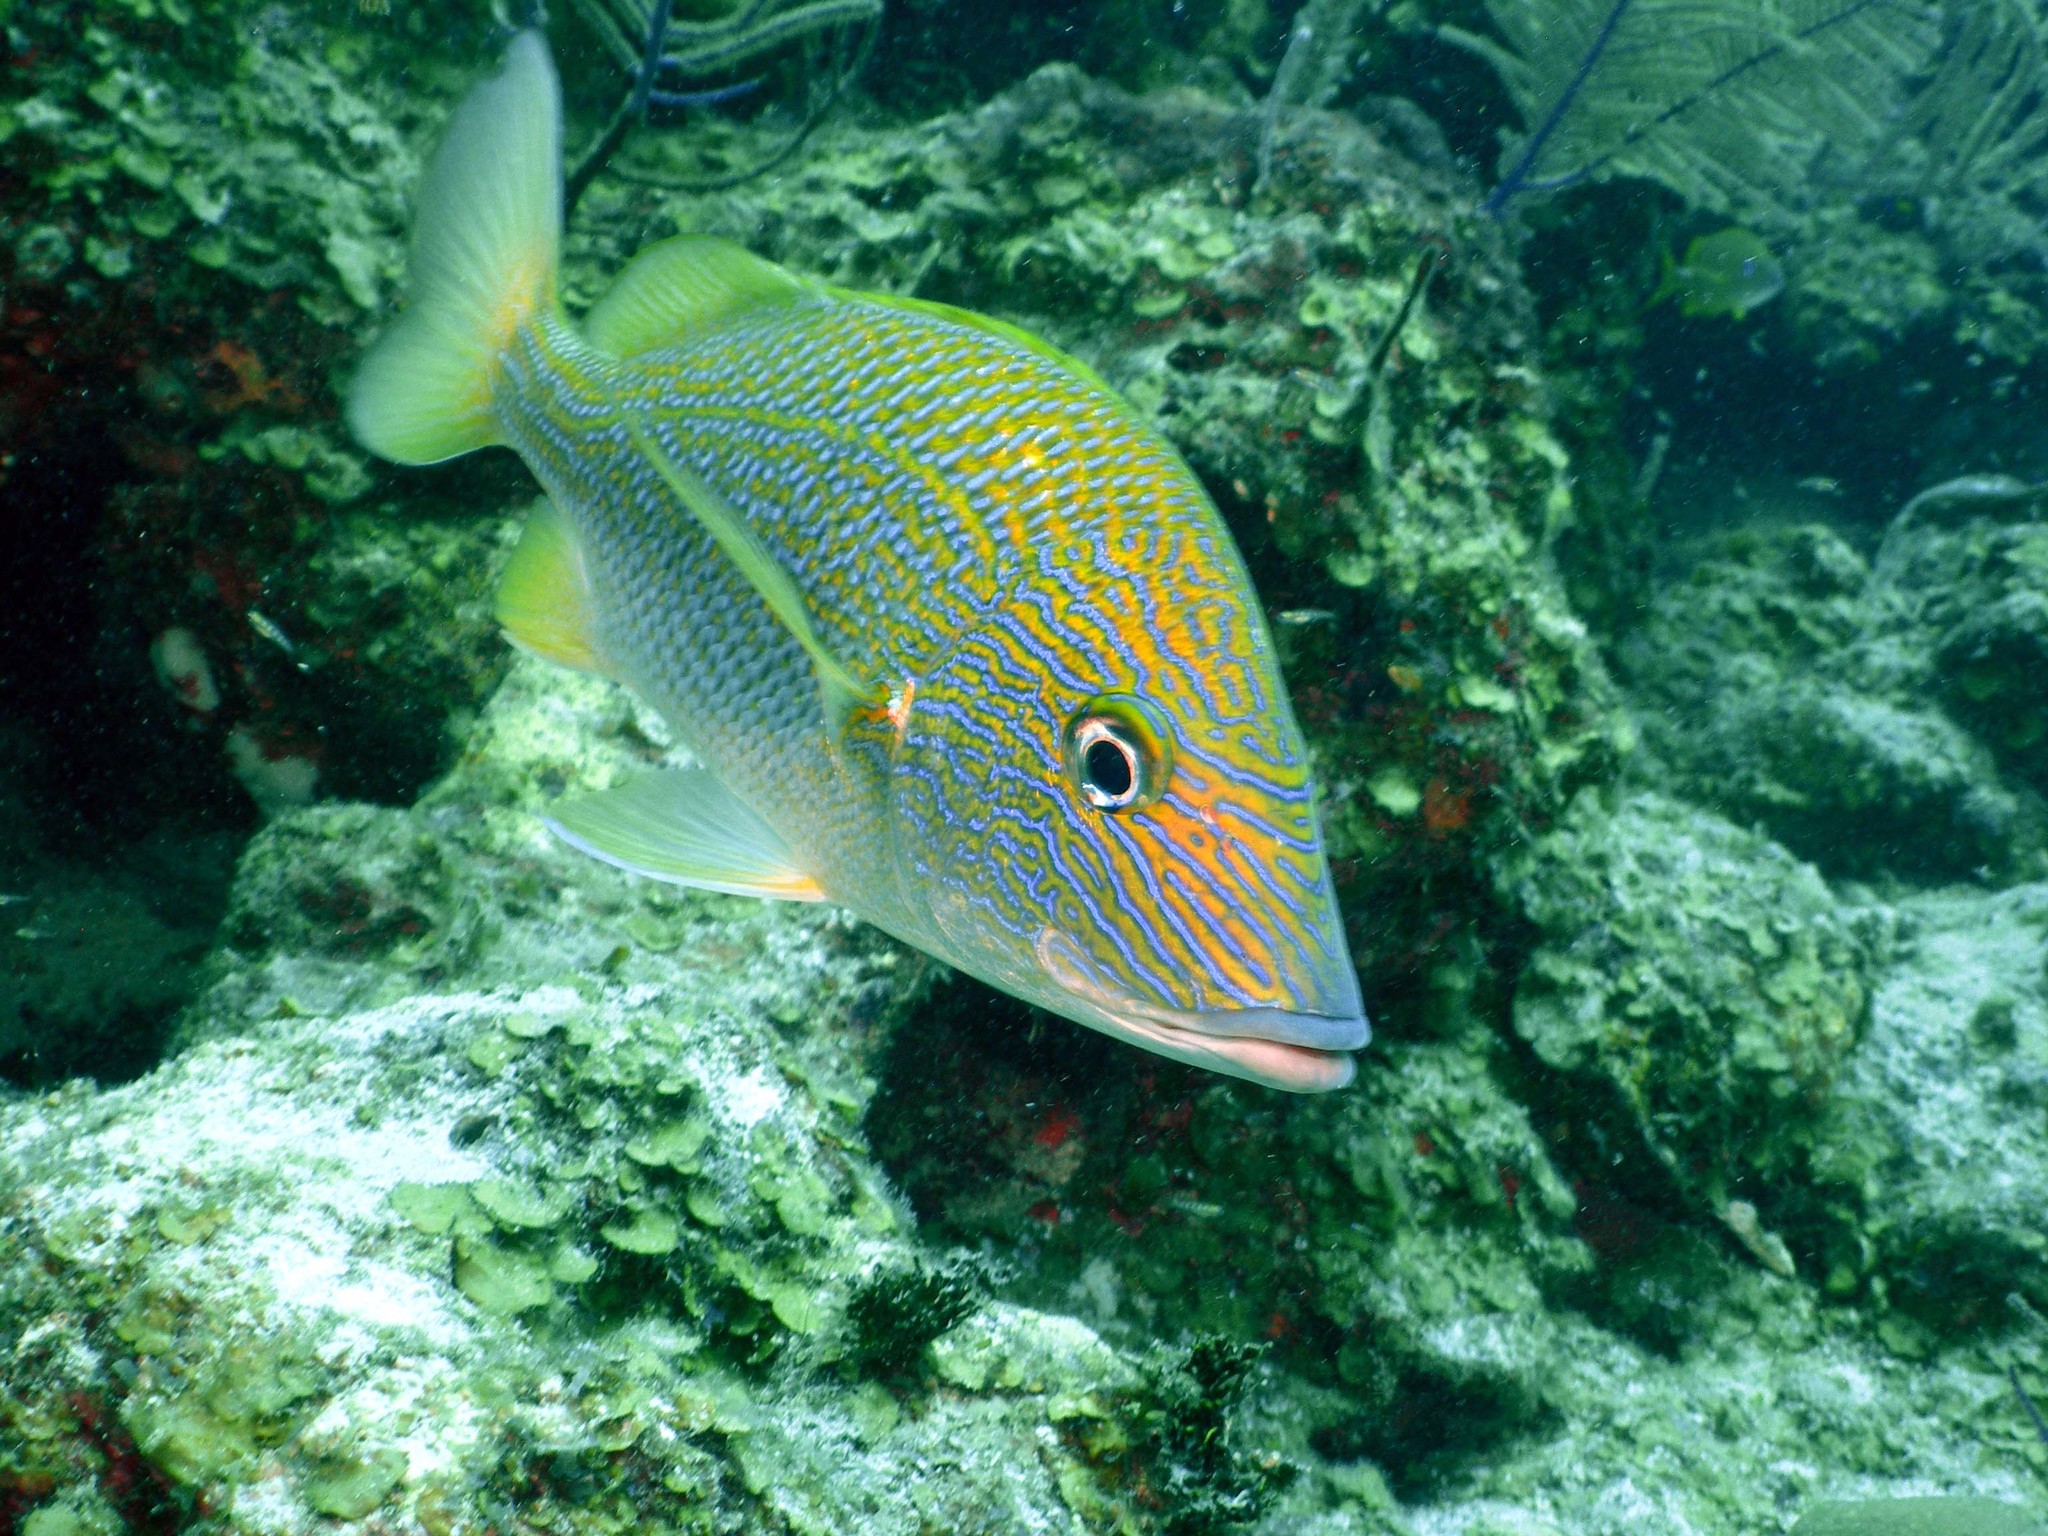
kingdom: Animalia
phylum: Chordata
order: Perciformes
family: Haemulidae
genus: Haemulon
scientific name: Haemulon plumierii
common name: White grunt
